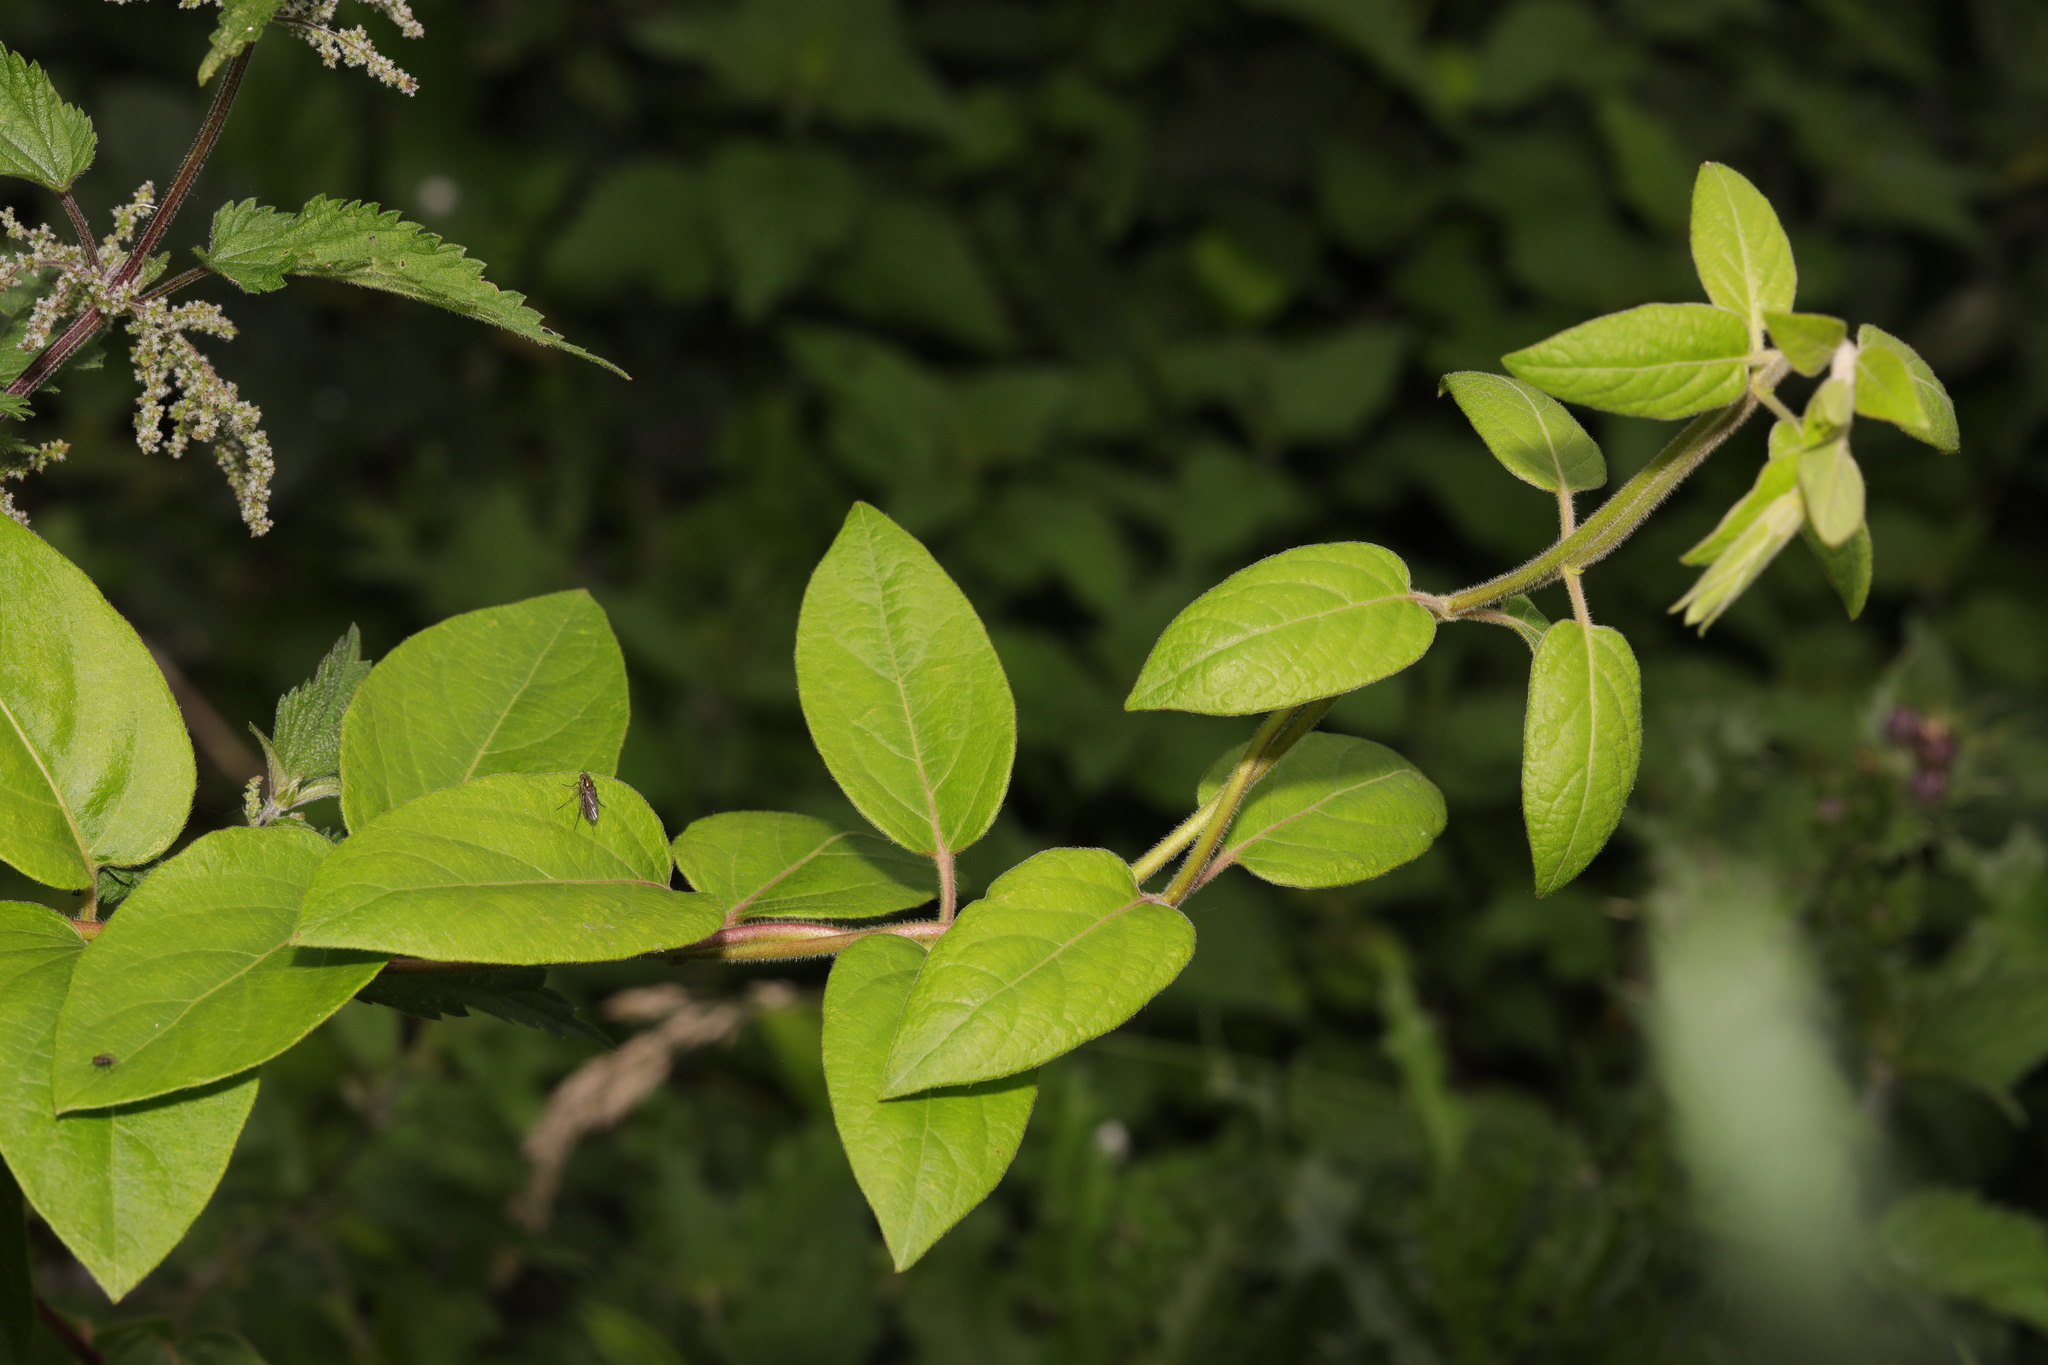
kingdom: Plantae
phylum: Tracheophyta
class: Magnoliopsida
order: Dipsacales
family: Caprifoliaceae
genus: Lonicera
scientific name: Lonicera japonica
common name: Japanese honeysuckle
